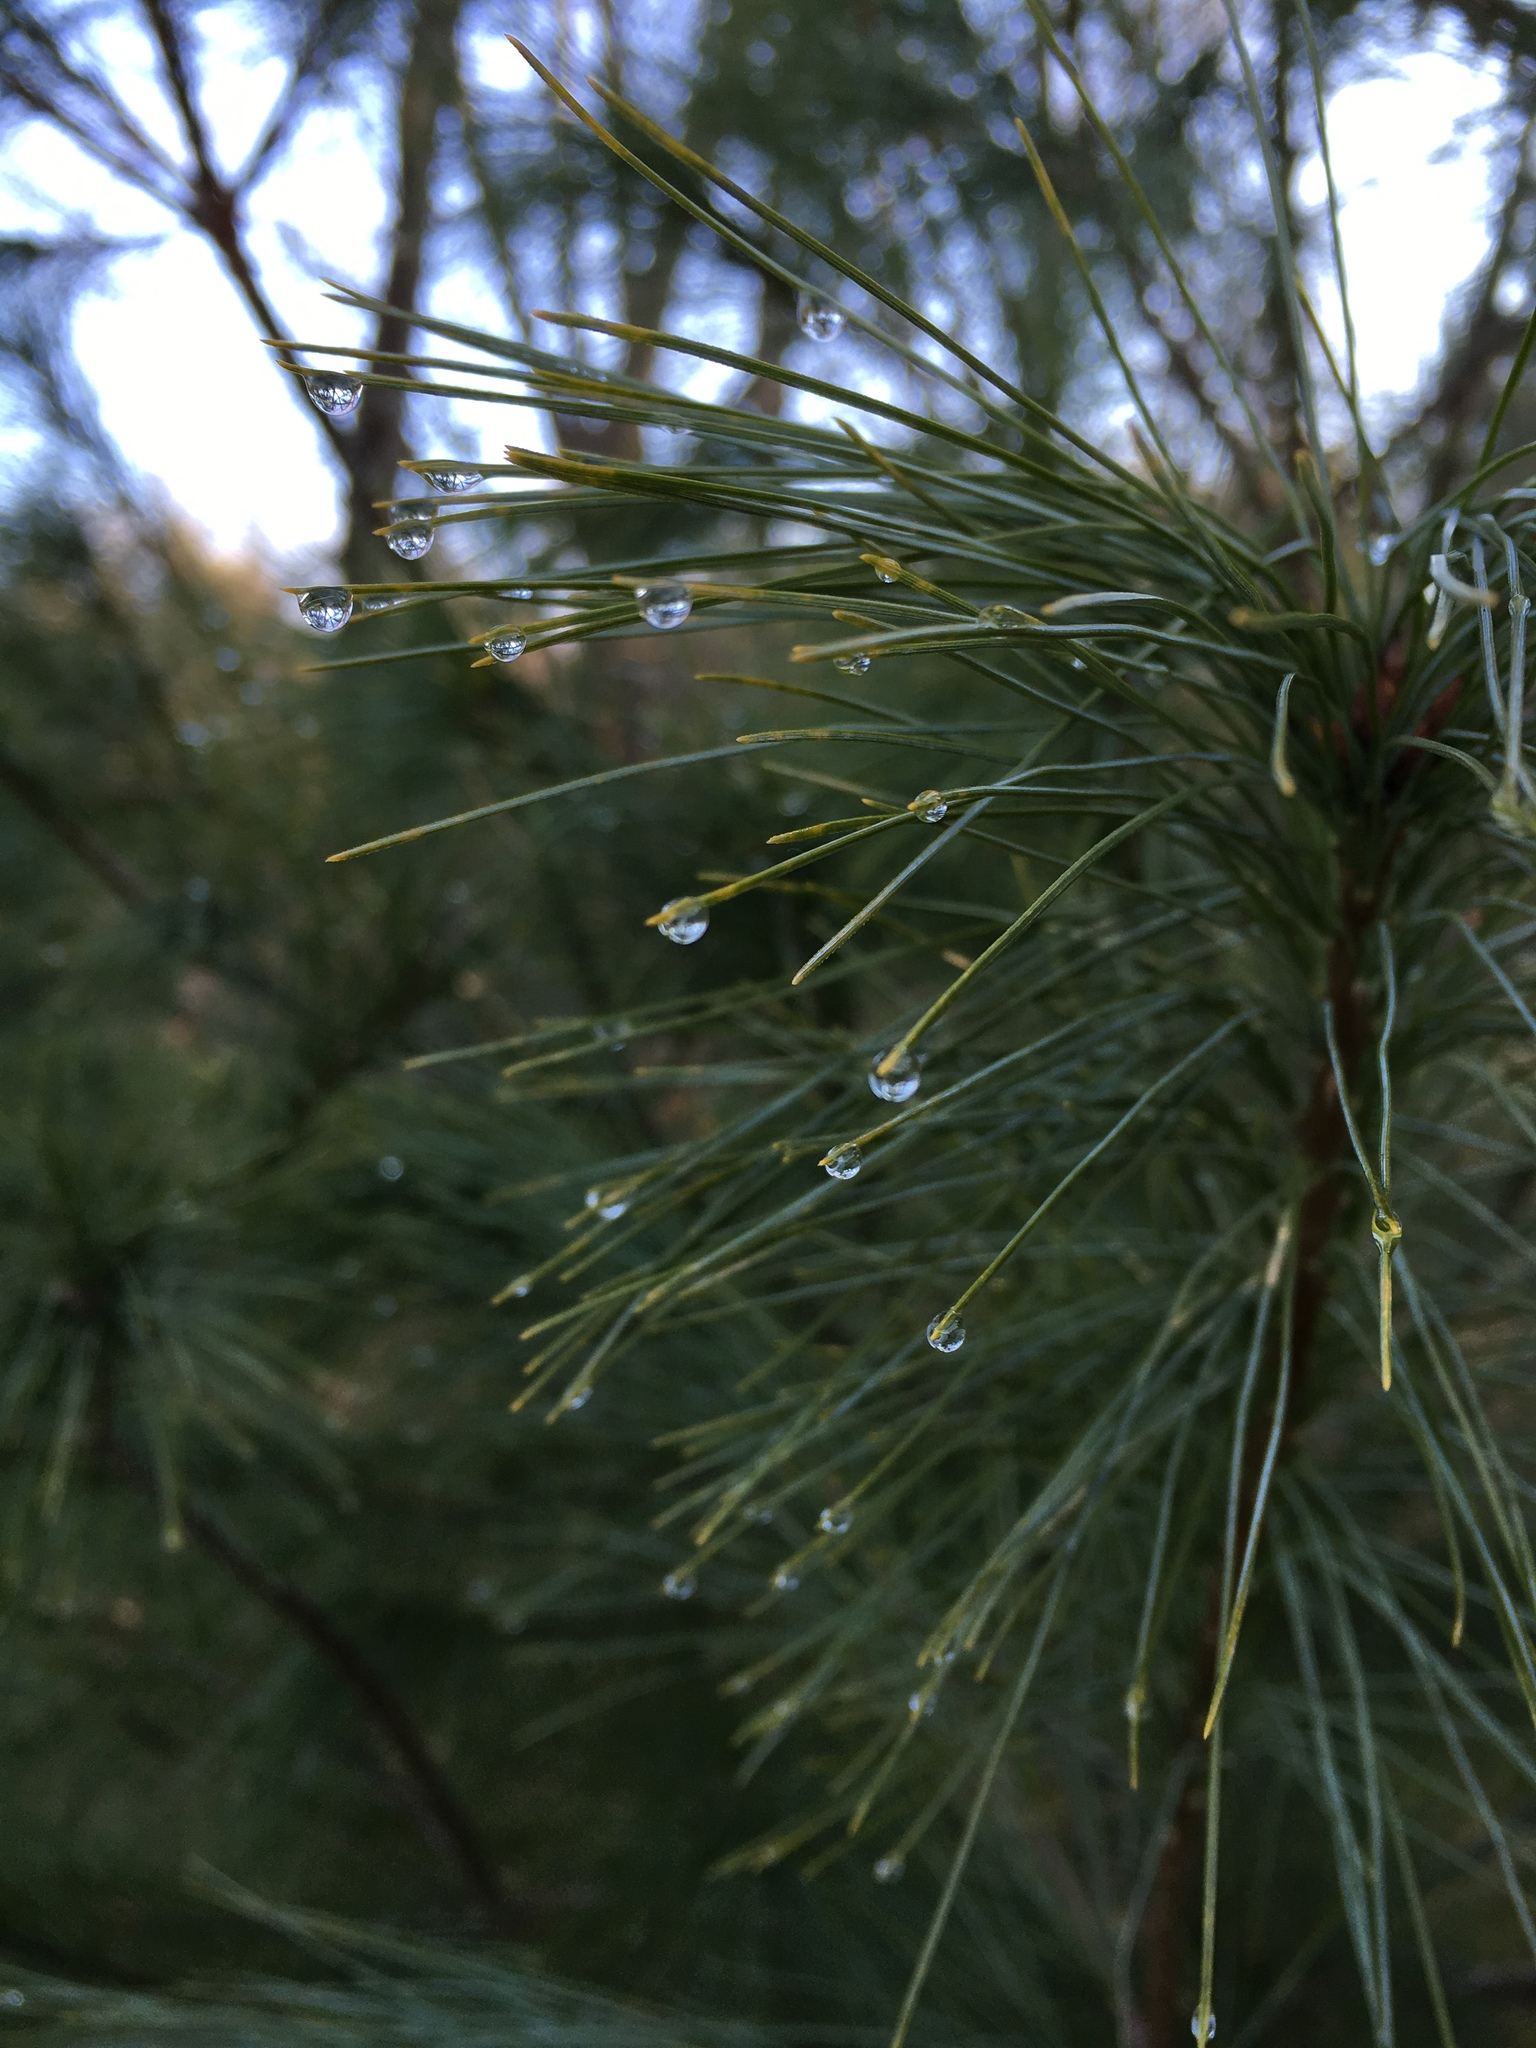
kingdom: Plantae
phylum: Tracheophyta
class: Pinopsida
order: Pinales
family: Pinaceae
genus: Pinus
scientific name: Pinus strobus
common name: Weymouth pine
